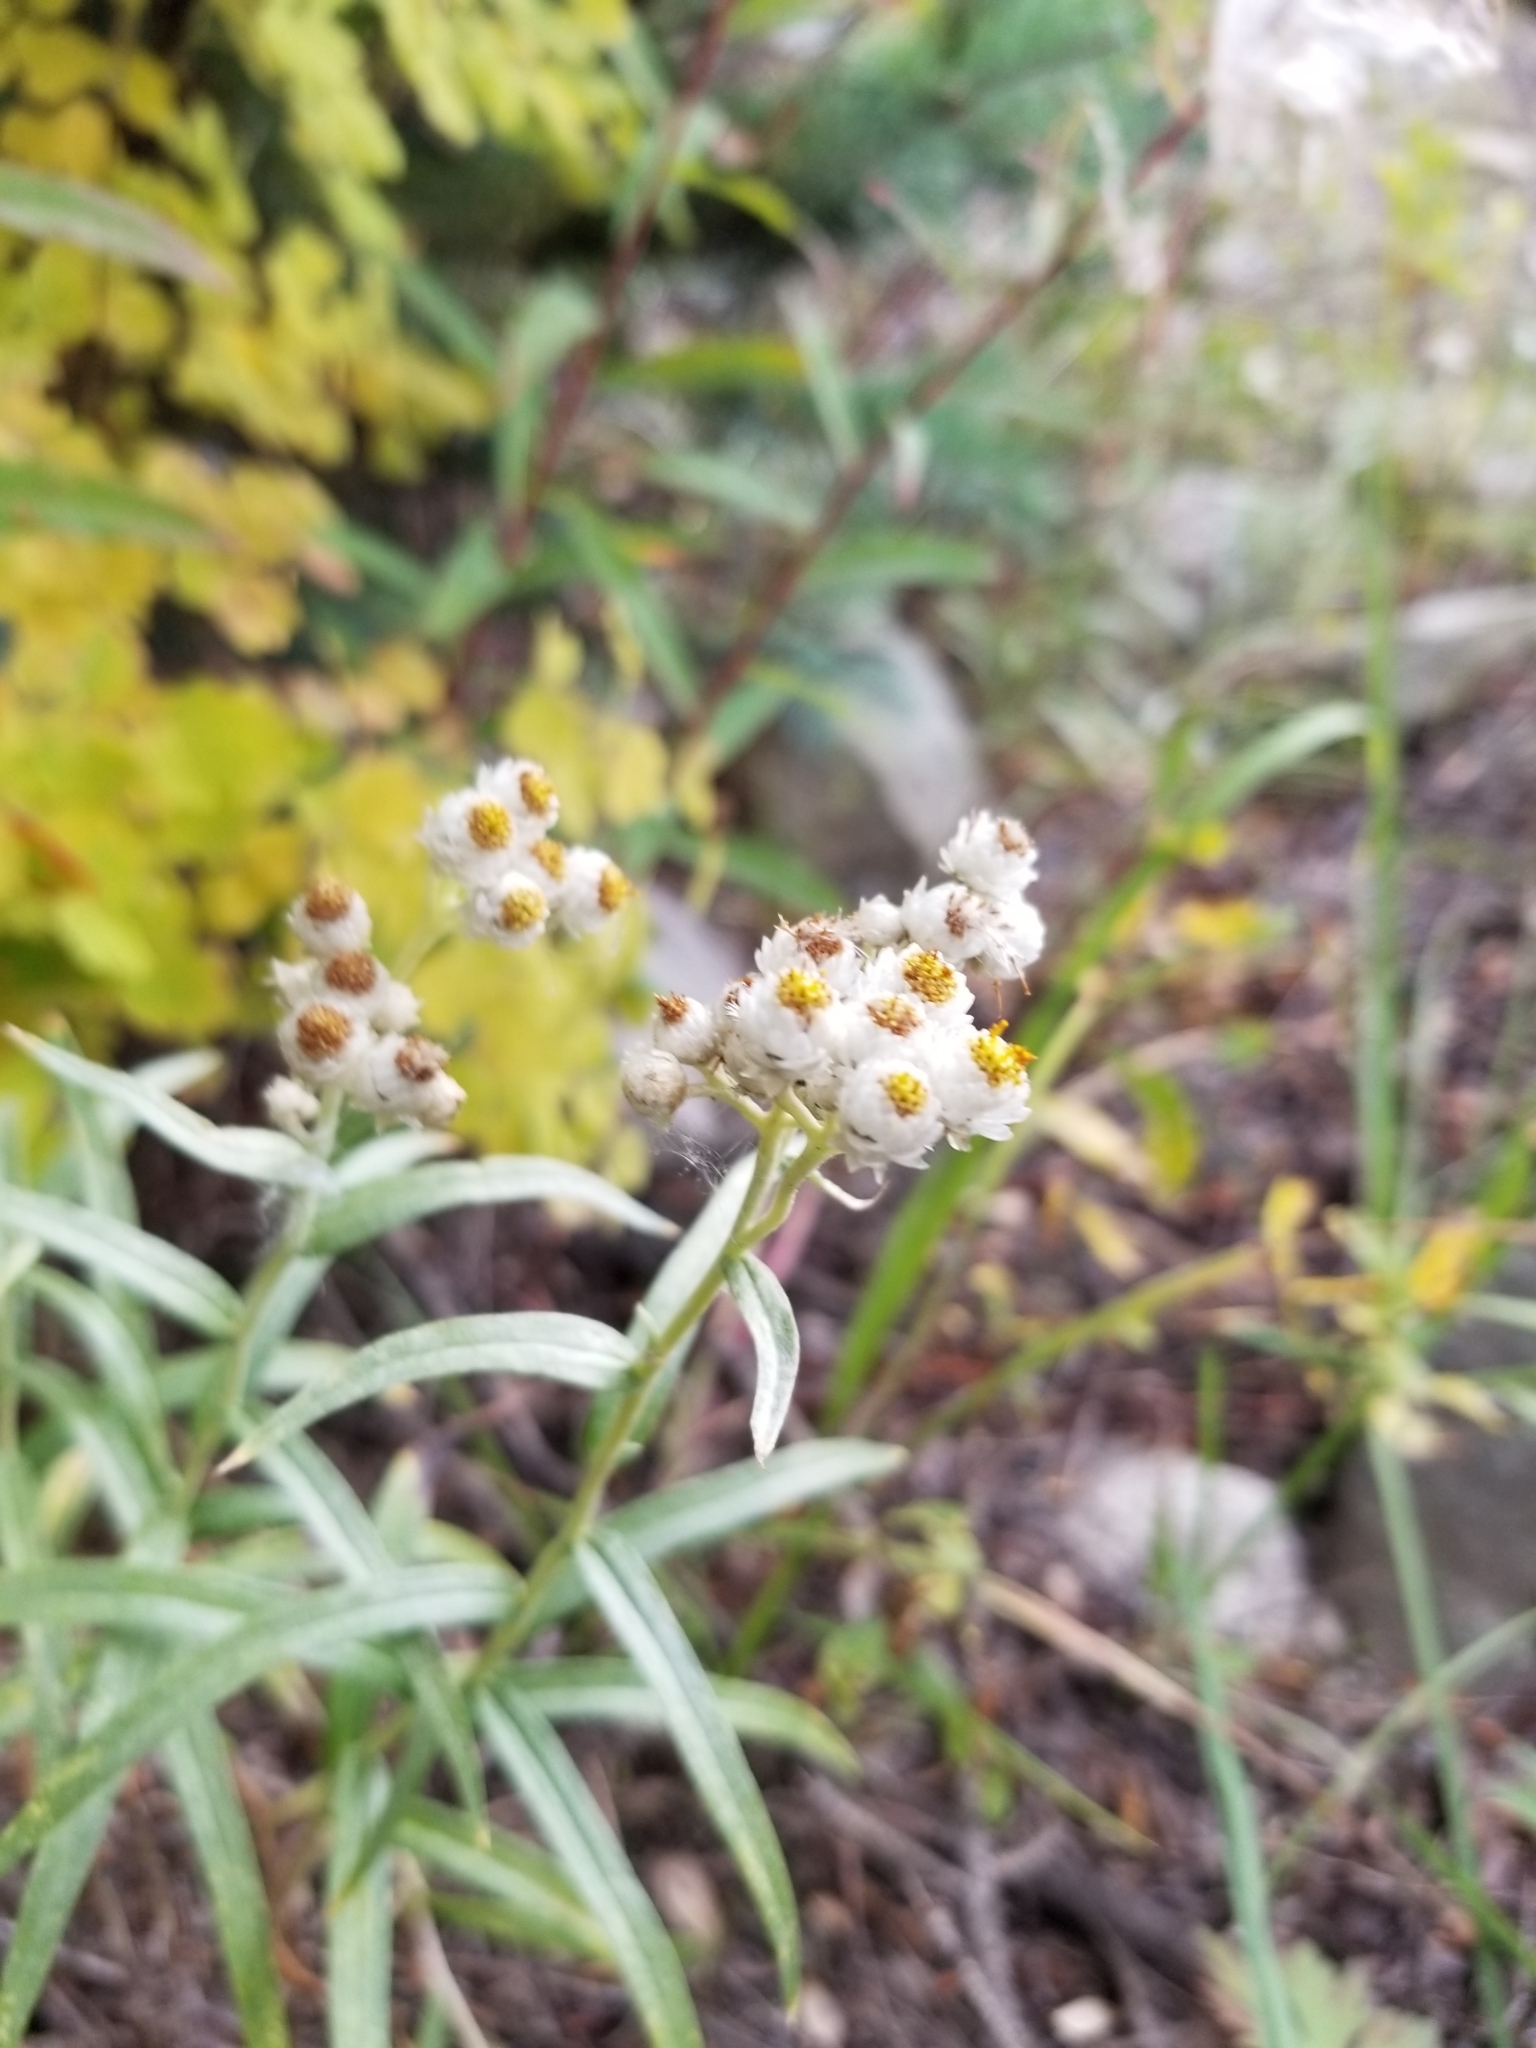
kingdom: Plantae
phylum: Tracheophyta
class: Magnoliopsida
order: Asterales
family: Asteraceae
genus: Anaphalis
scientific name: Anaphalis margaritacea
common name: Pearly everlasting
